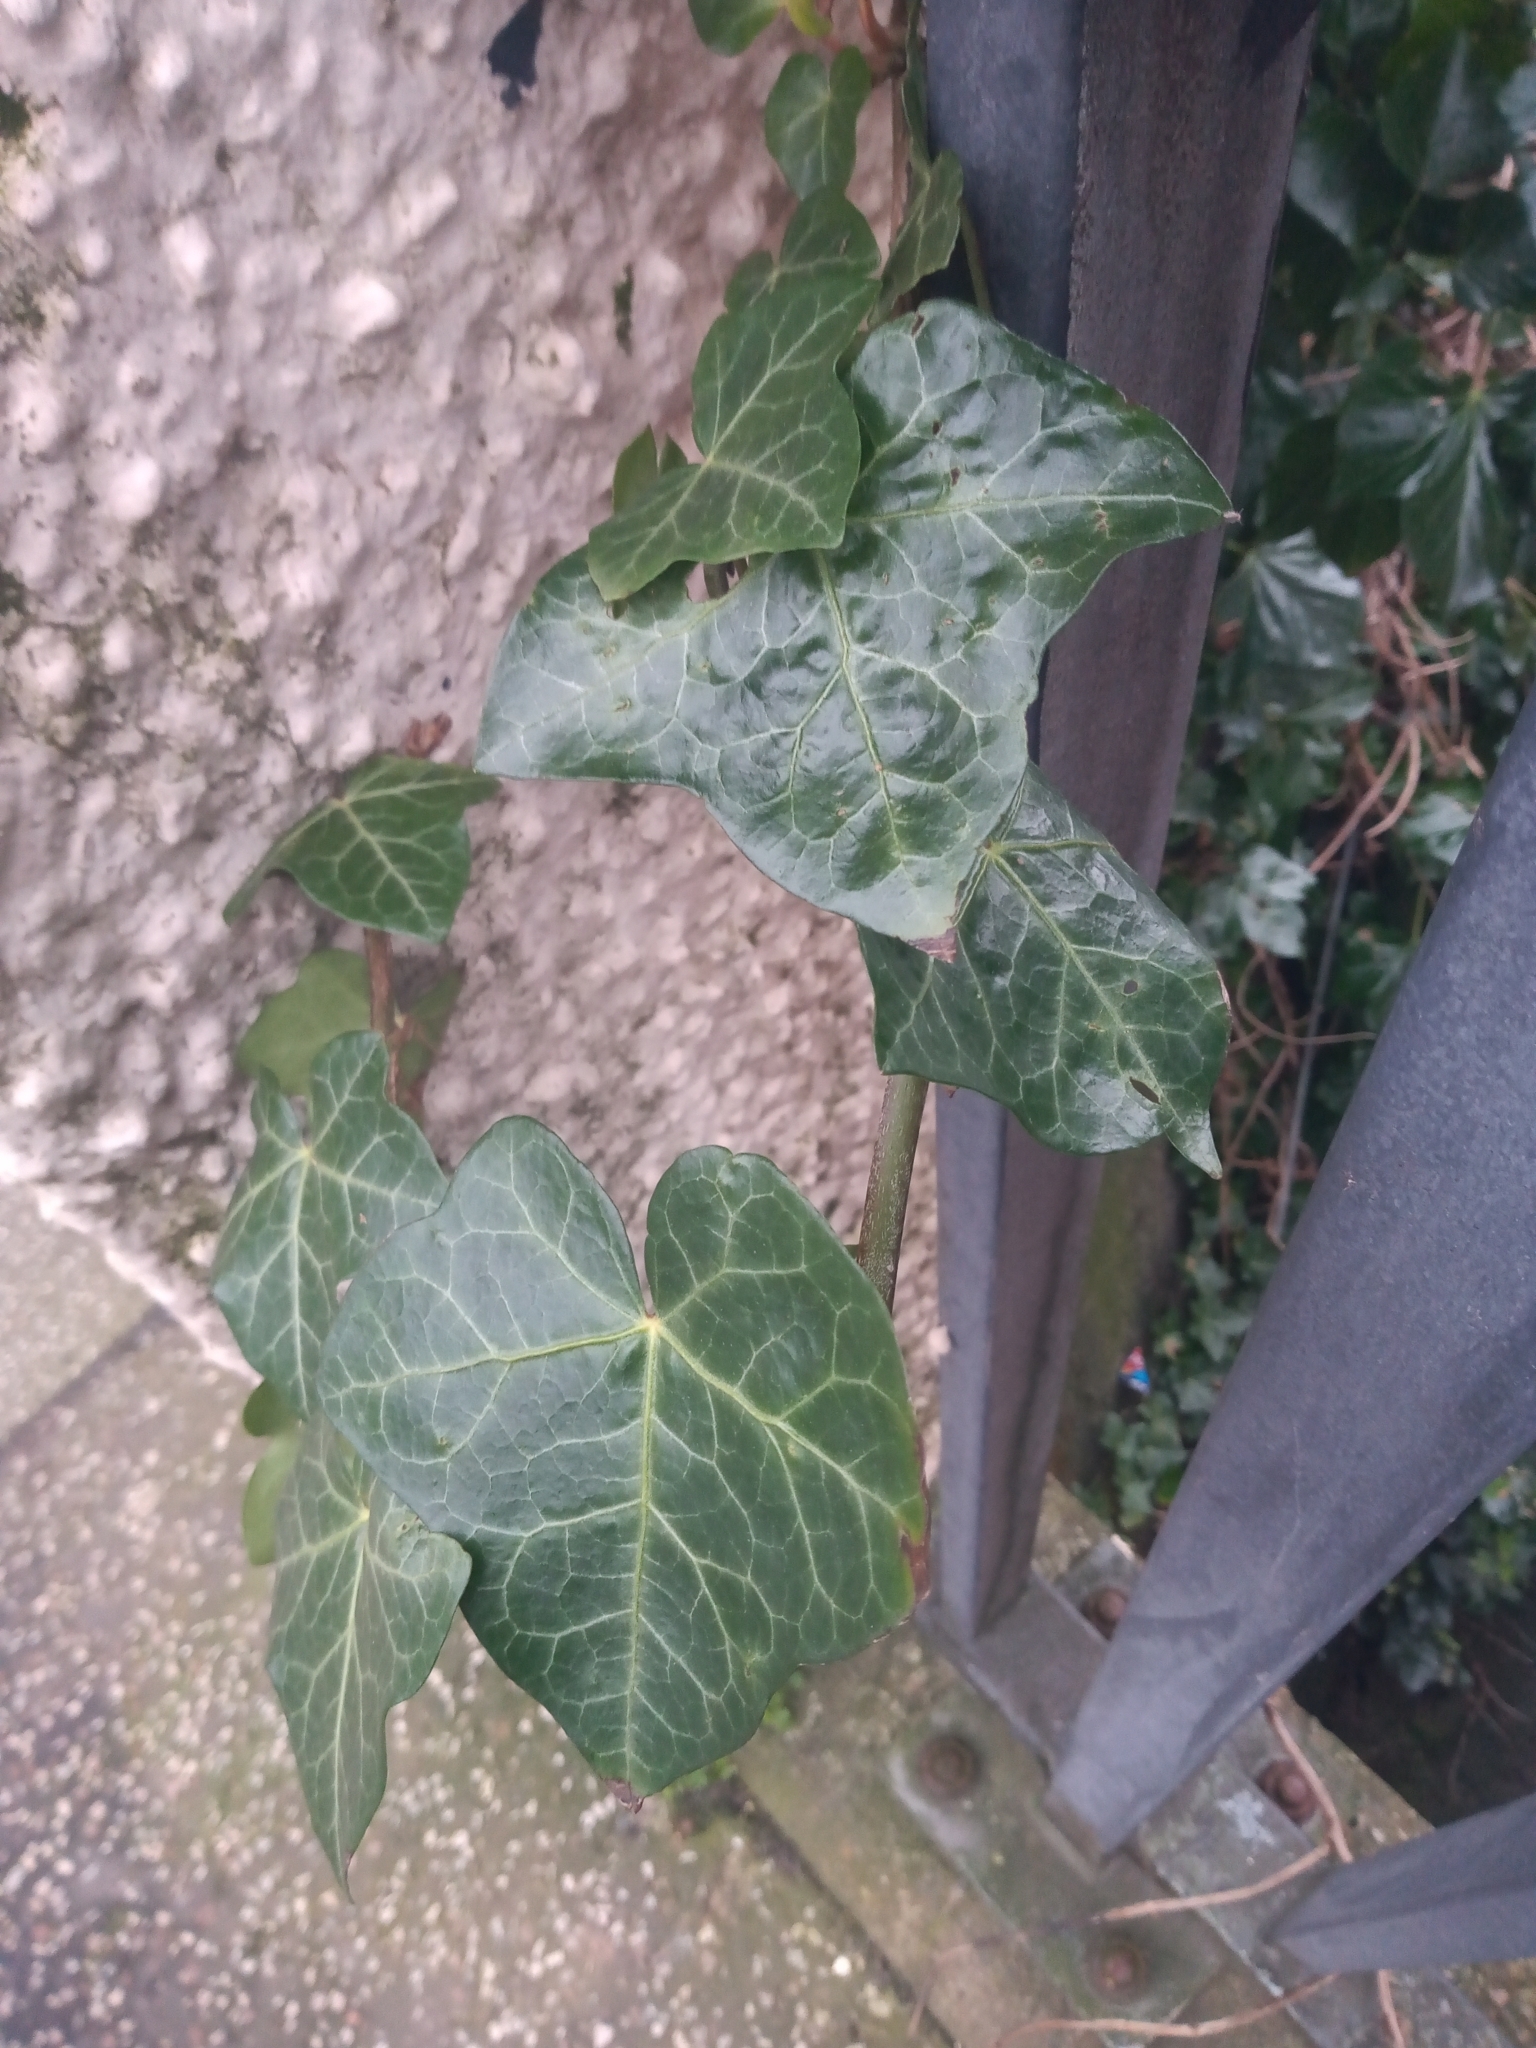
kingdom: Plantae
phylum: Tracheophyta
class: Magnoliopsida
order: Apiales
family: Araliaceae
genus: Hedera
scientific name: Hedera helix
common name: Ivy
